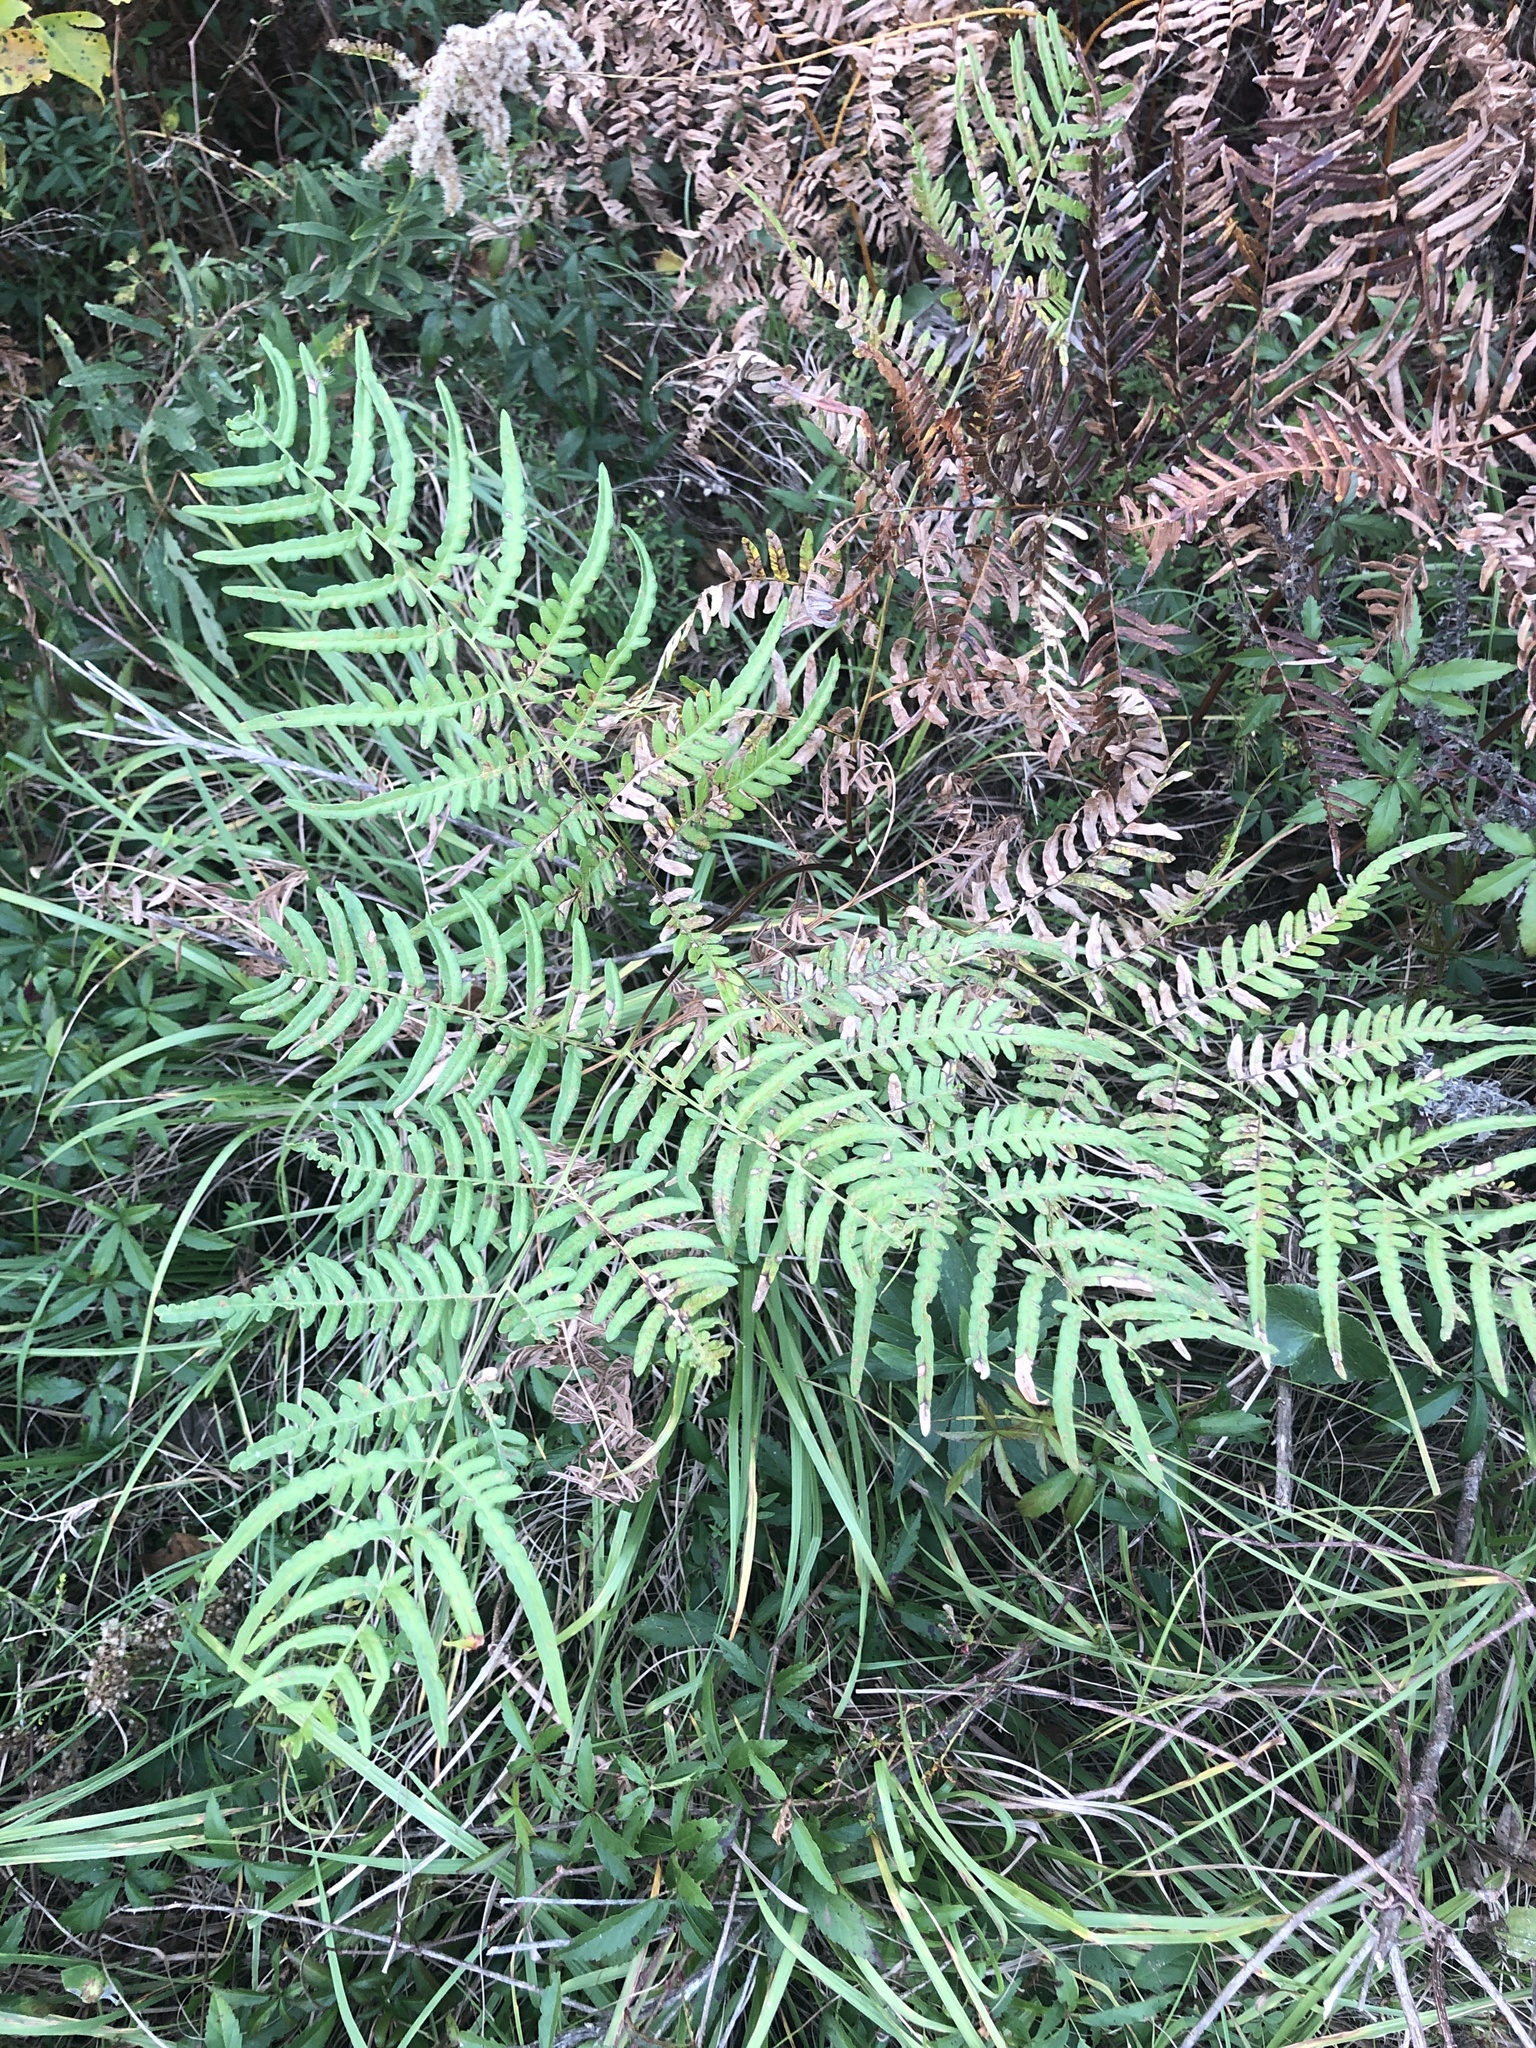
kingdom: Plantae
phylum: Tracheophyta
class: Polypodiopsida
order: Polypodiales
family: Dennstaedtiaceae
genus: Pteridium
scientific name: Pteridium aquilinum
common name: Bracken
